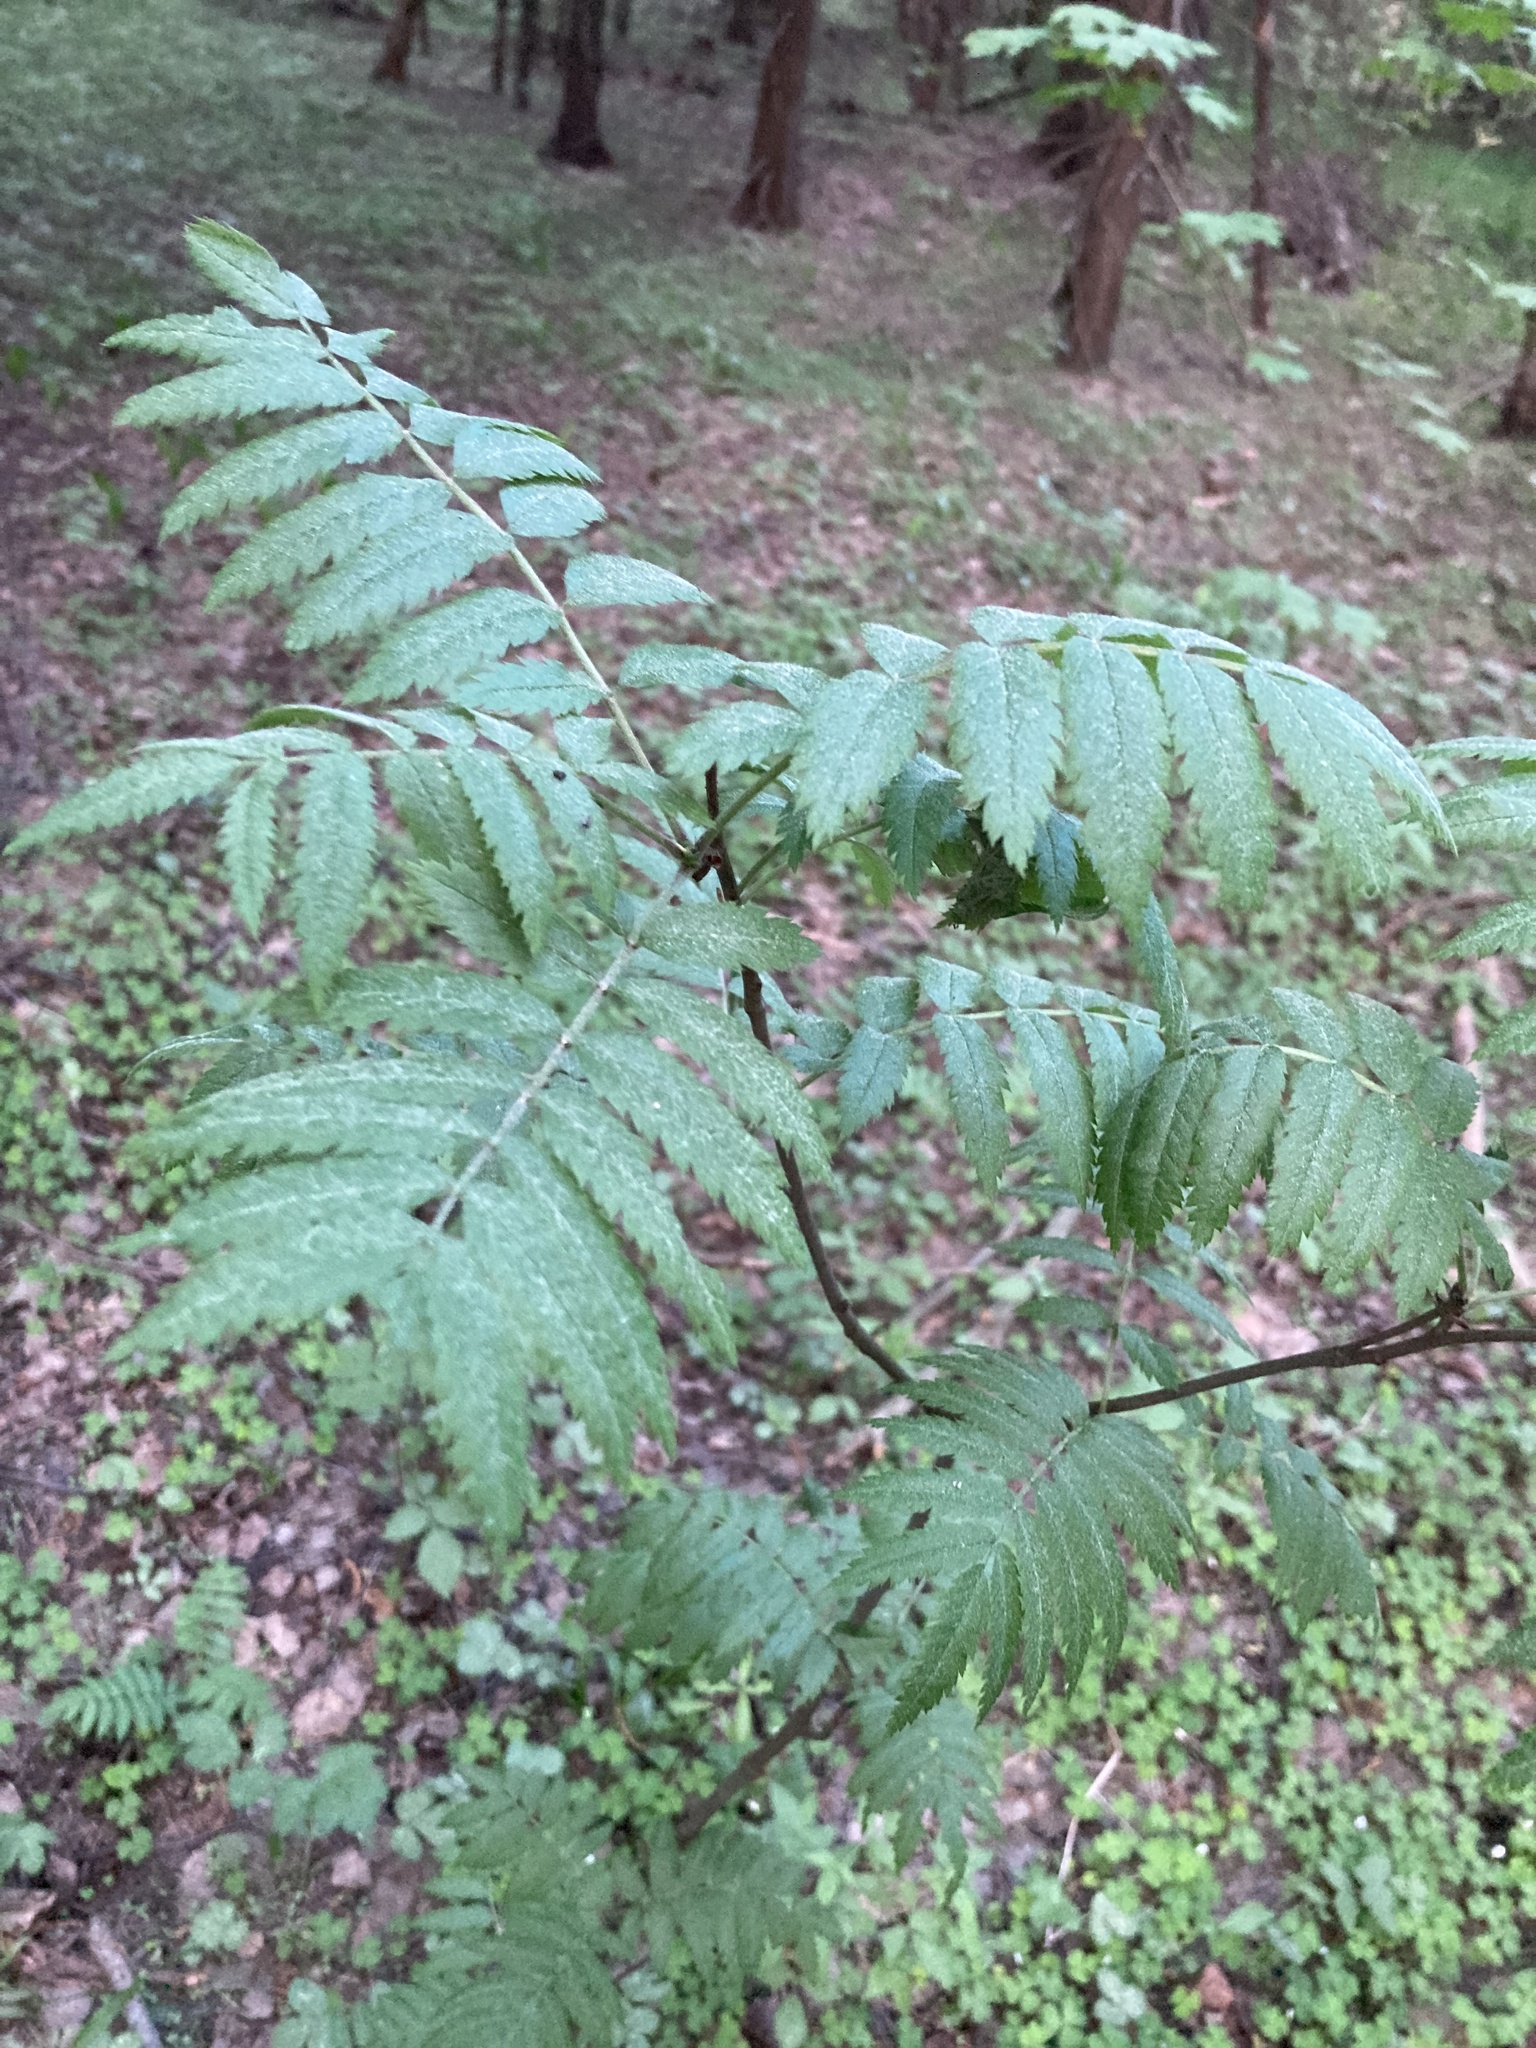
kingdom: Plantae
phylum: Tracheophyta
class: Magnoliopsida
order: Rosales
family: Rosaceae
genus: Sorbus
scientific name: Sorbus aucuparia
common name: Rowan
